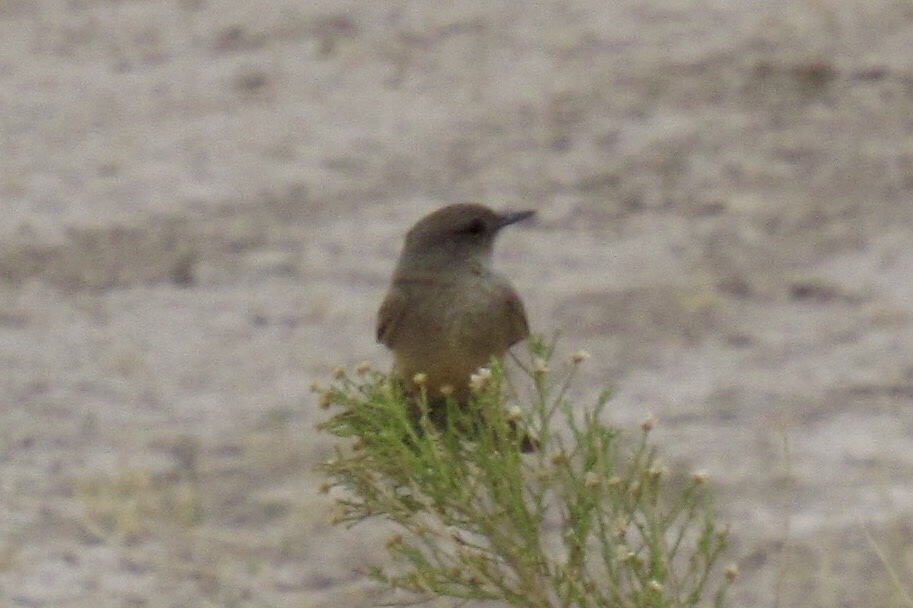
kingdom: Animalia
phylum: Chordata
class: Aves
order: Passeriformes
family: Tyrannidae
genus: Sayornis
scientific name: Sayornis saya
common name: Say's phoebe
